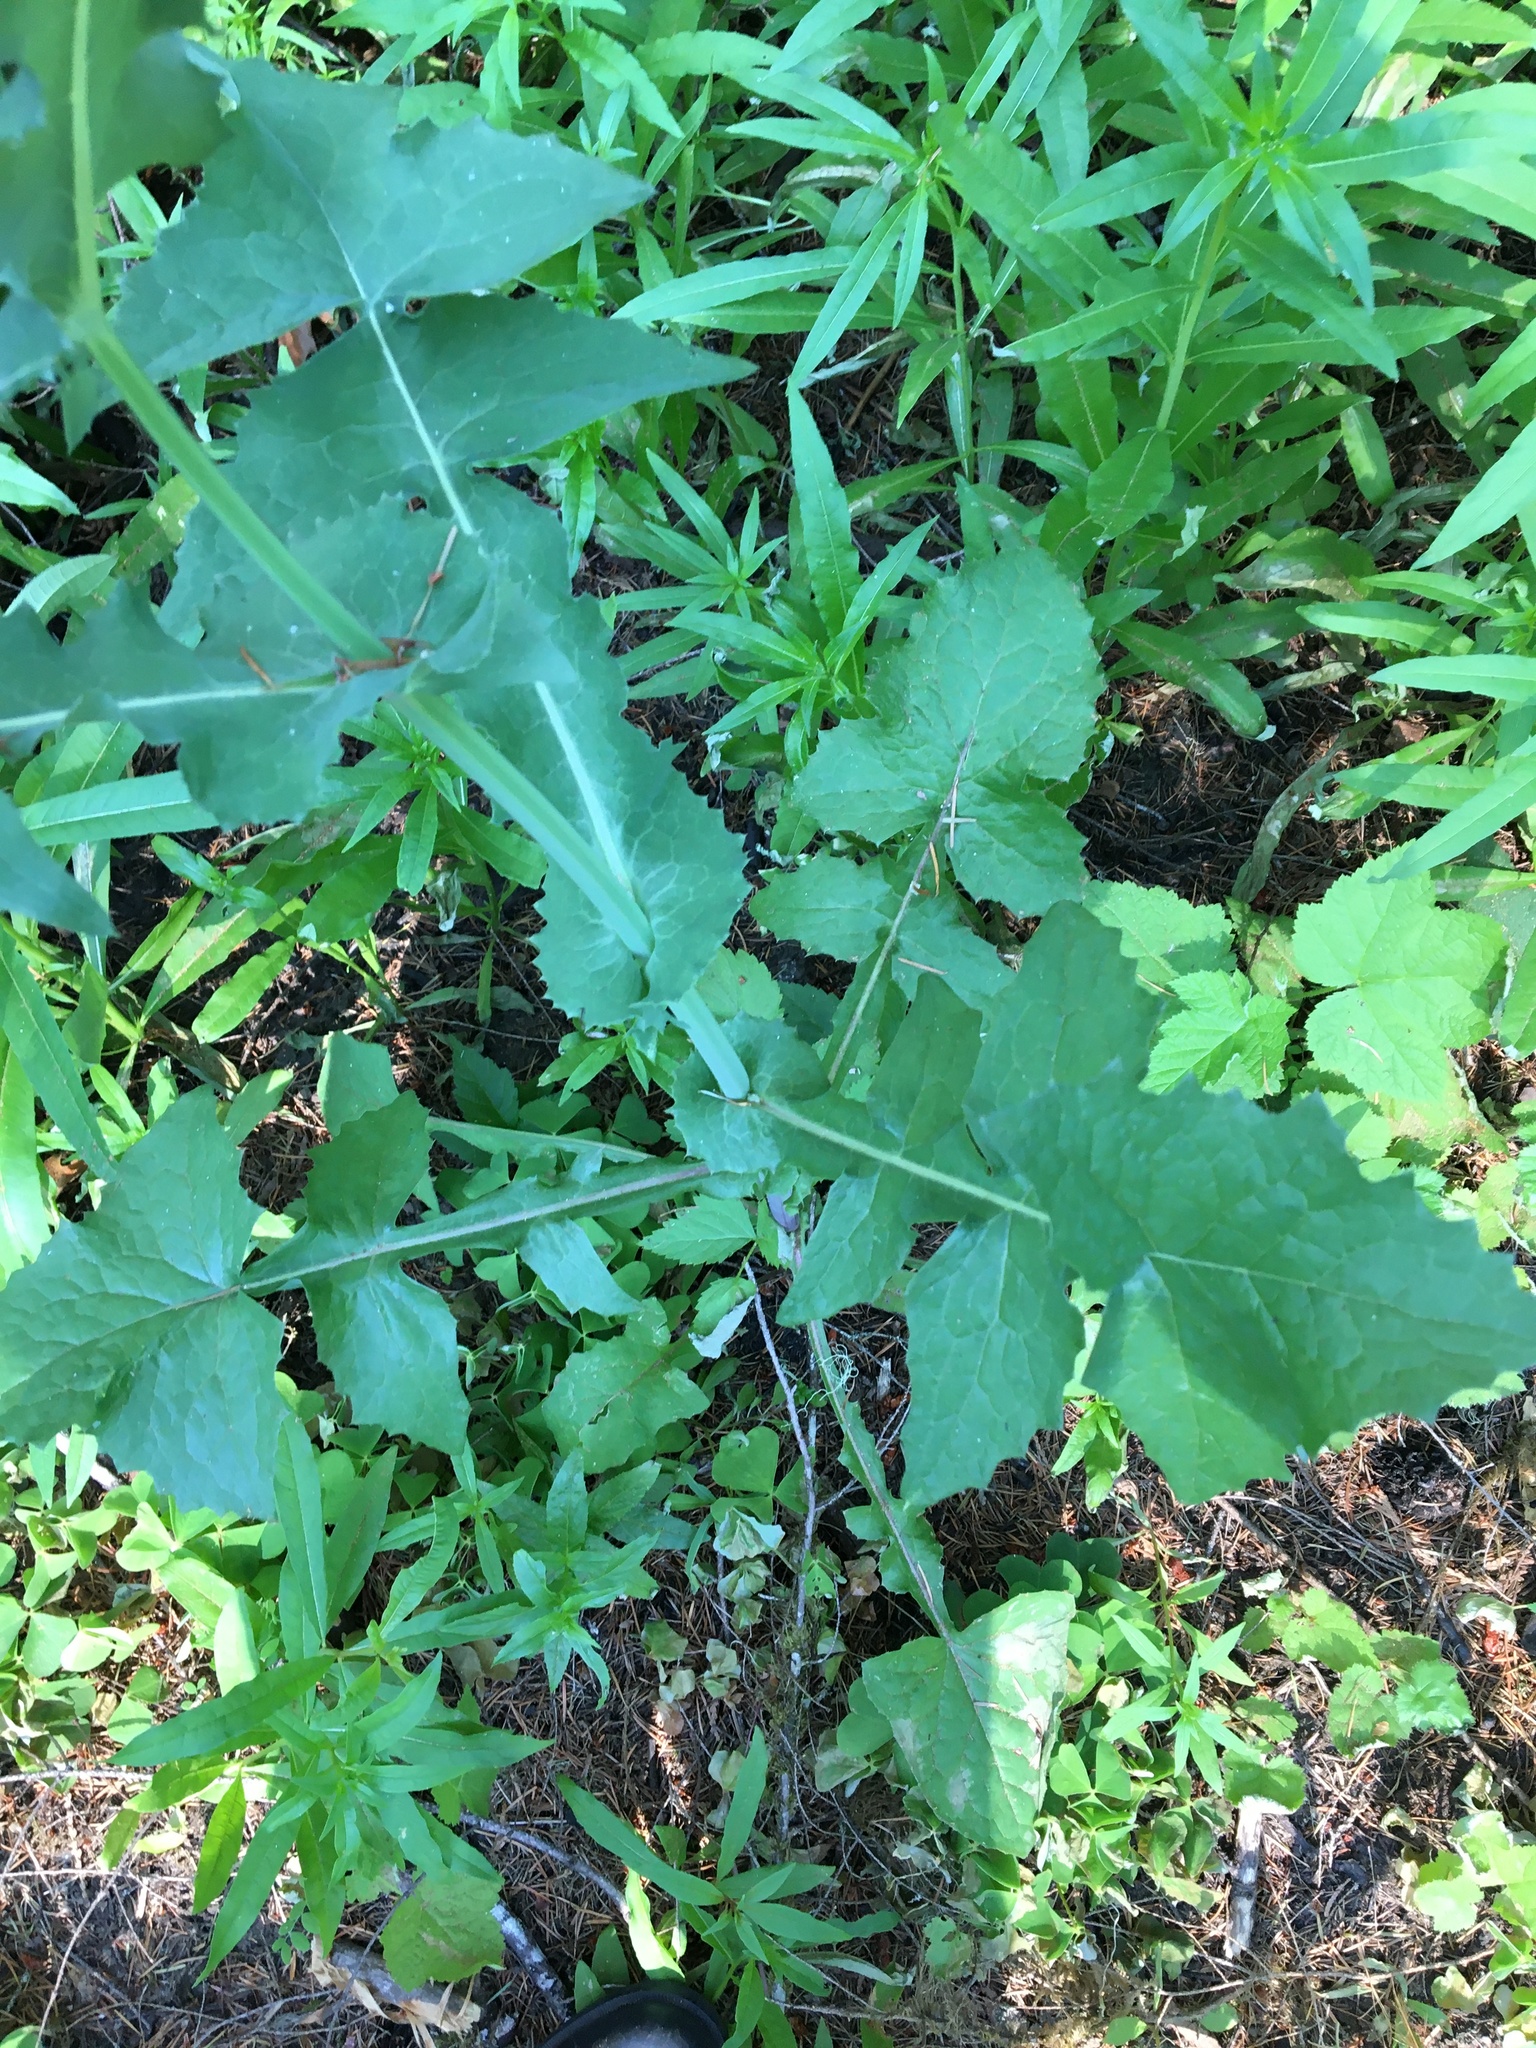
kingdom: Plantae
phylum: Tracheophyta
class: Magnoliopsida
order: Asterales
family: Asteraceae
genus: Sonchus
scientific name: Sonchus oleraceus
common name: Common sowthistle
